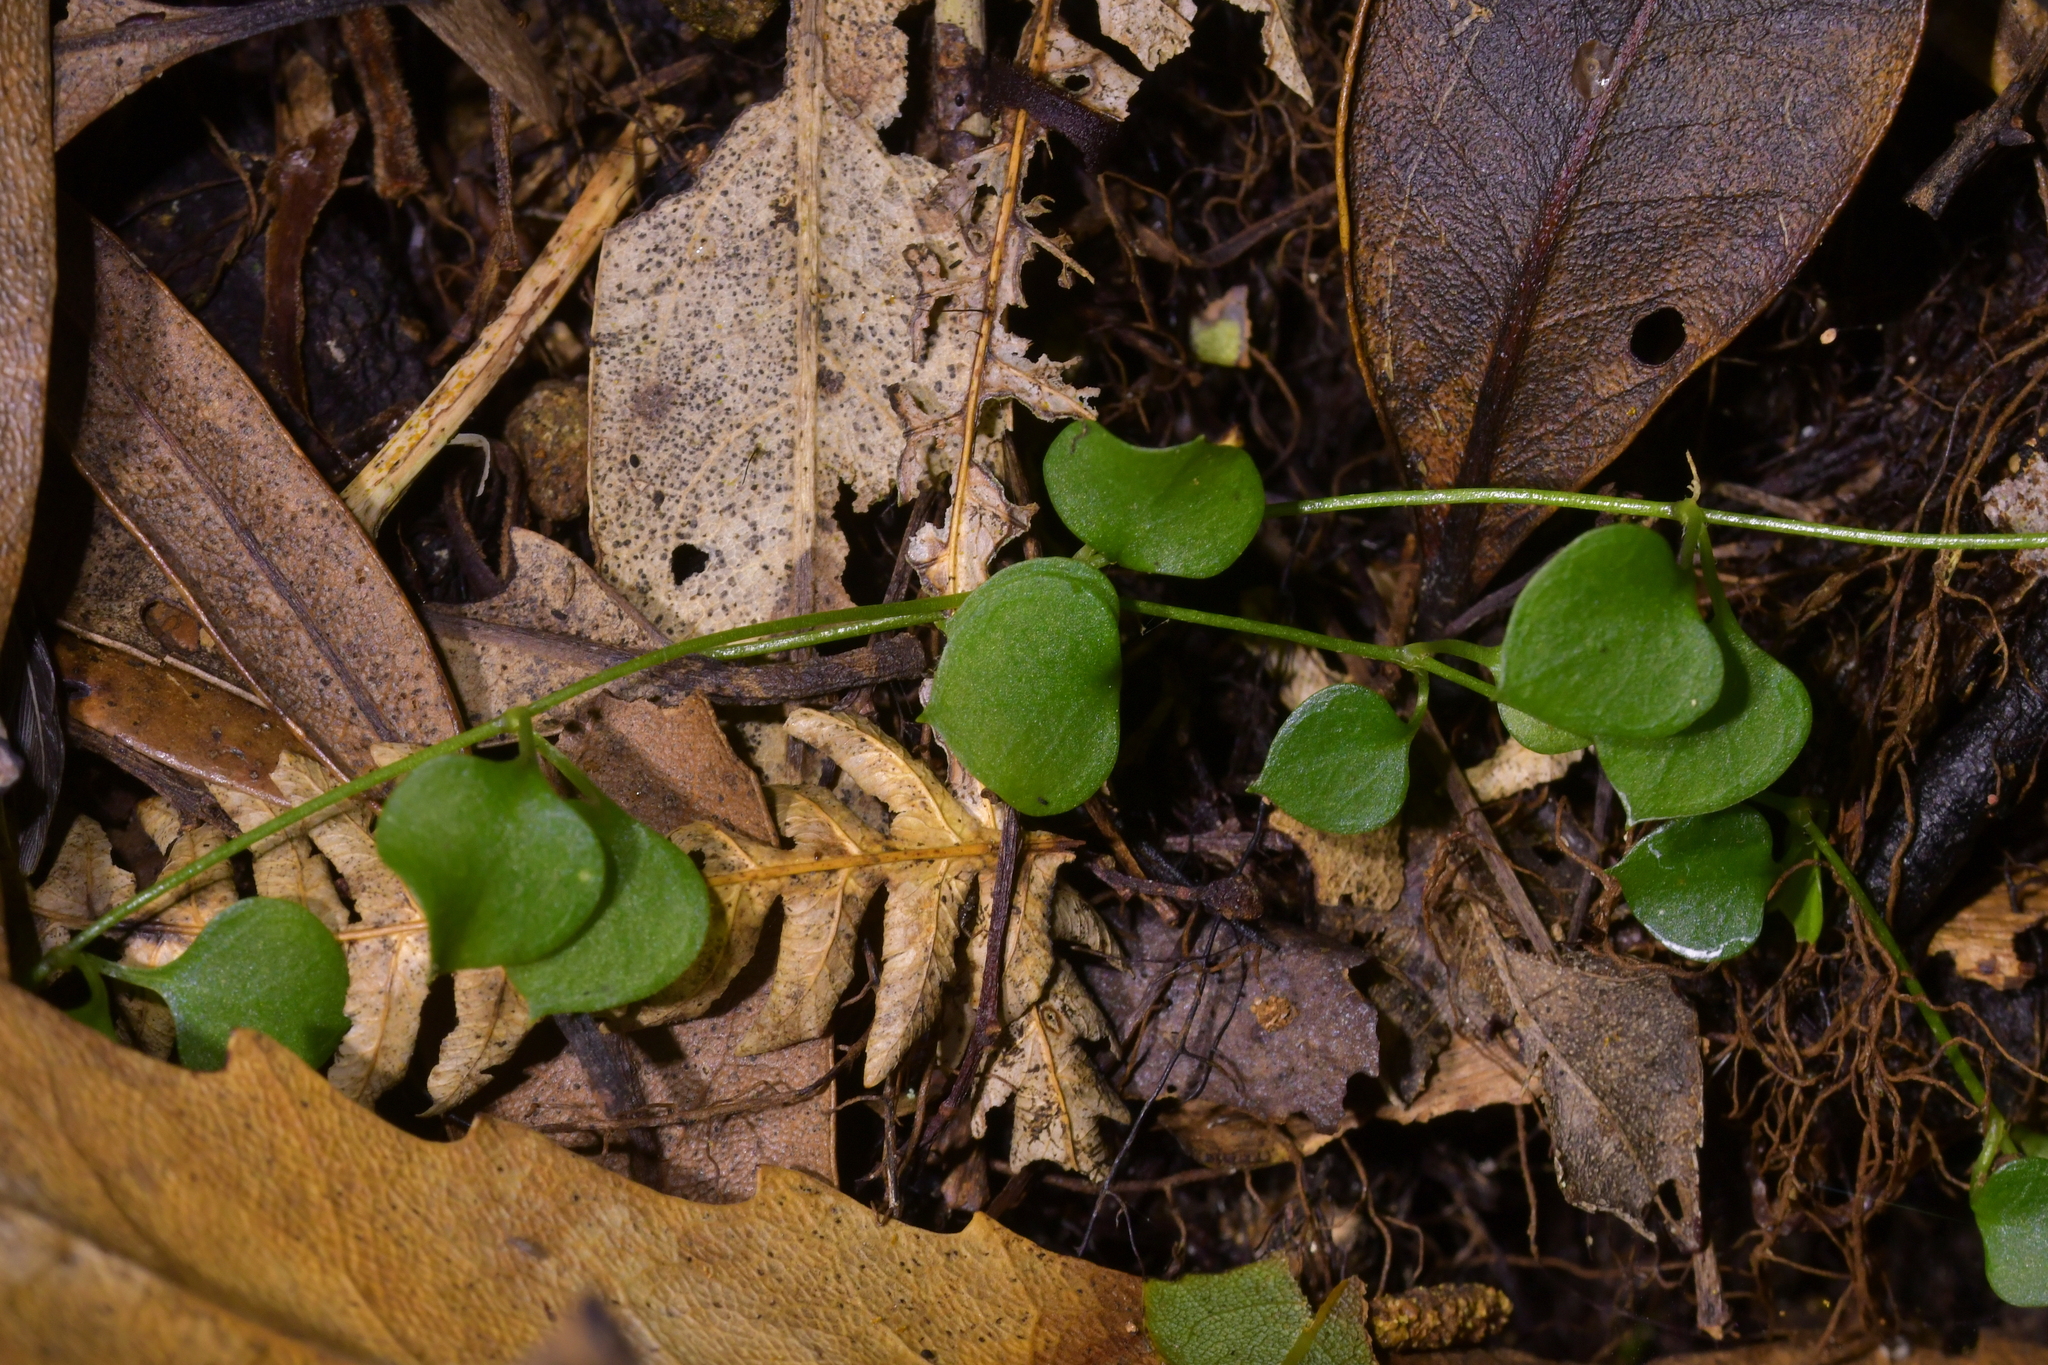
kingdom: Plantae
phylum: Tracheophyta
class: Magnoliopsida
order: Caryophyllales
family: Caryophyllaceae
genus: Stellaria
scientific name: Stellaria parviflora
